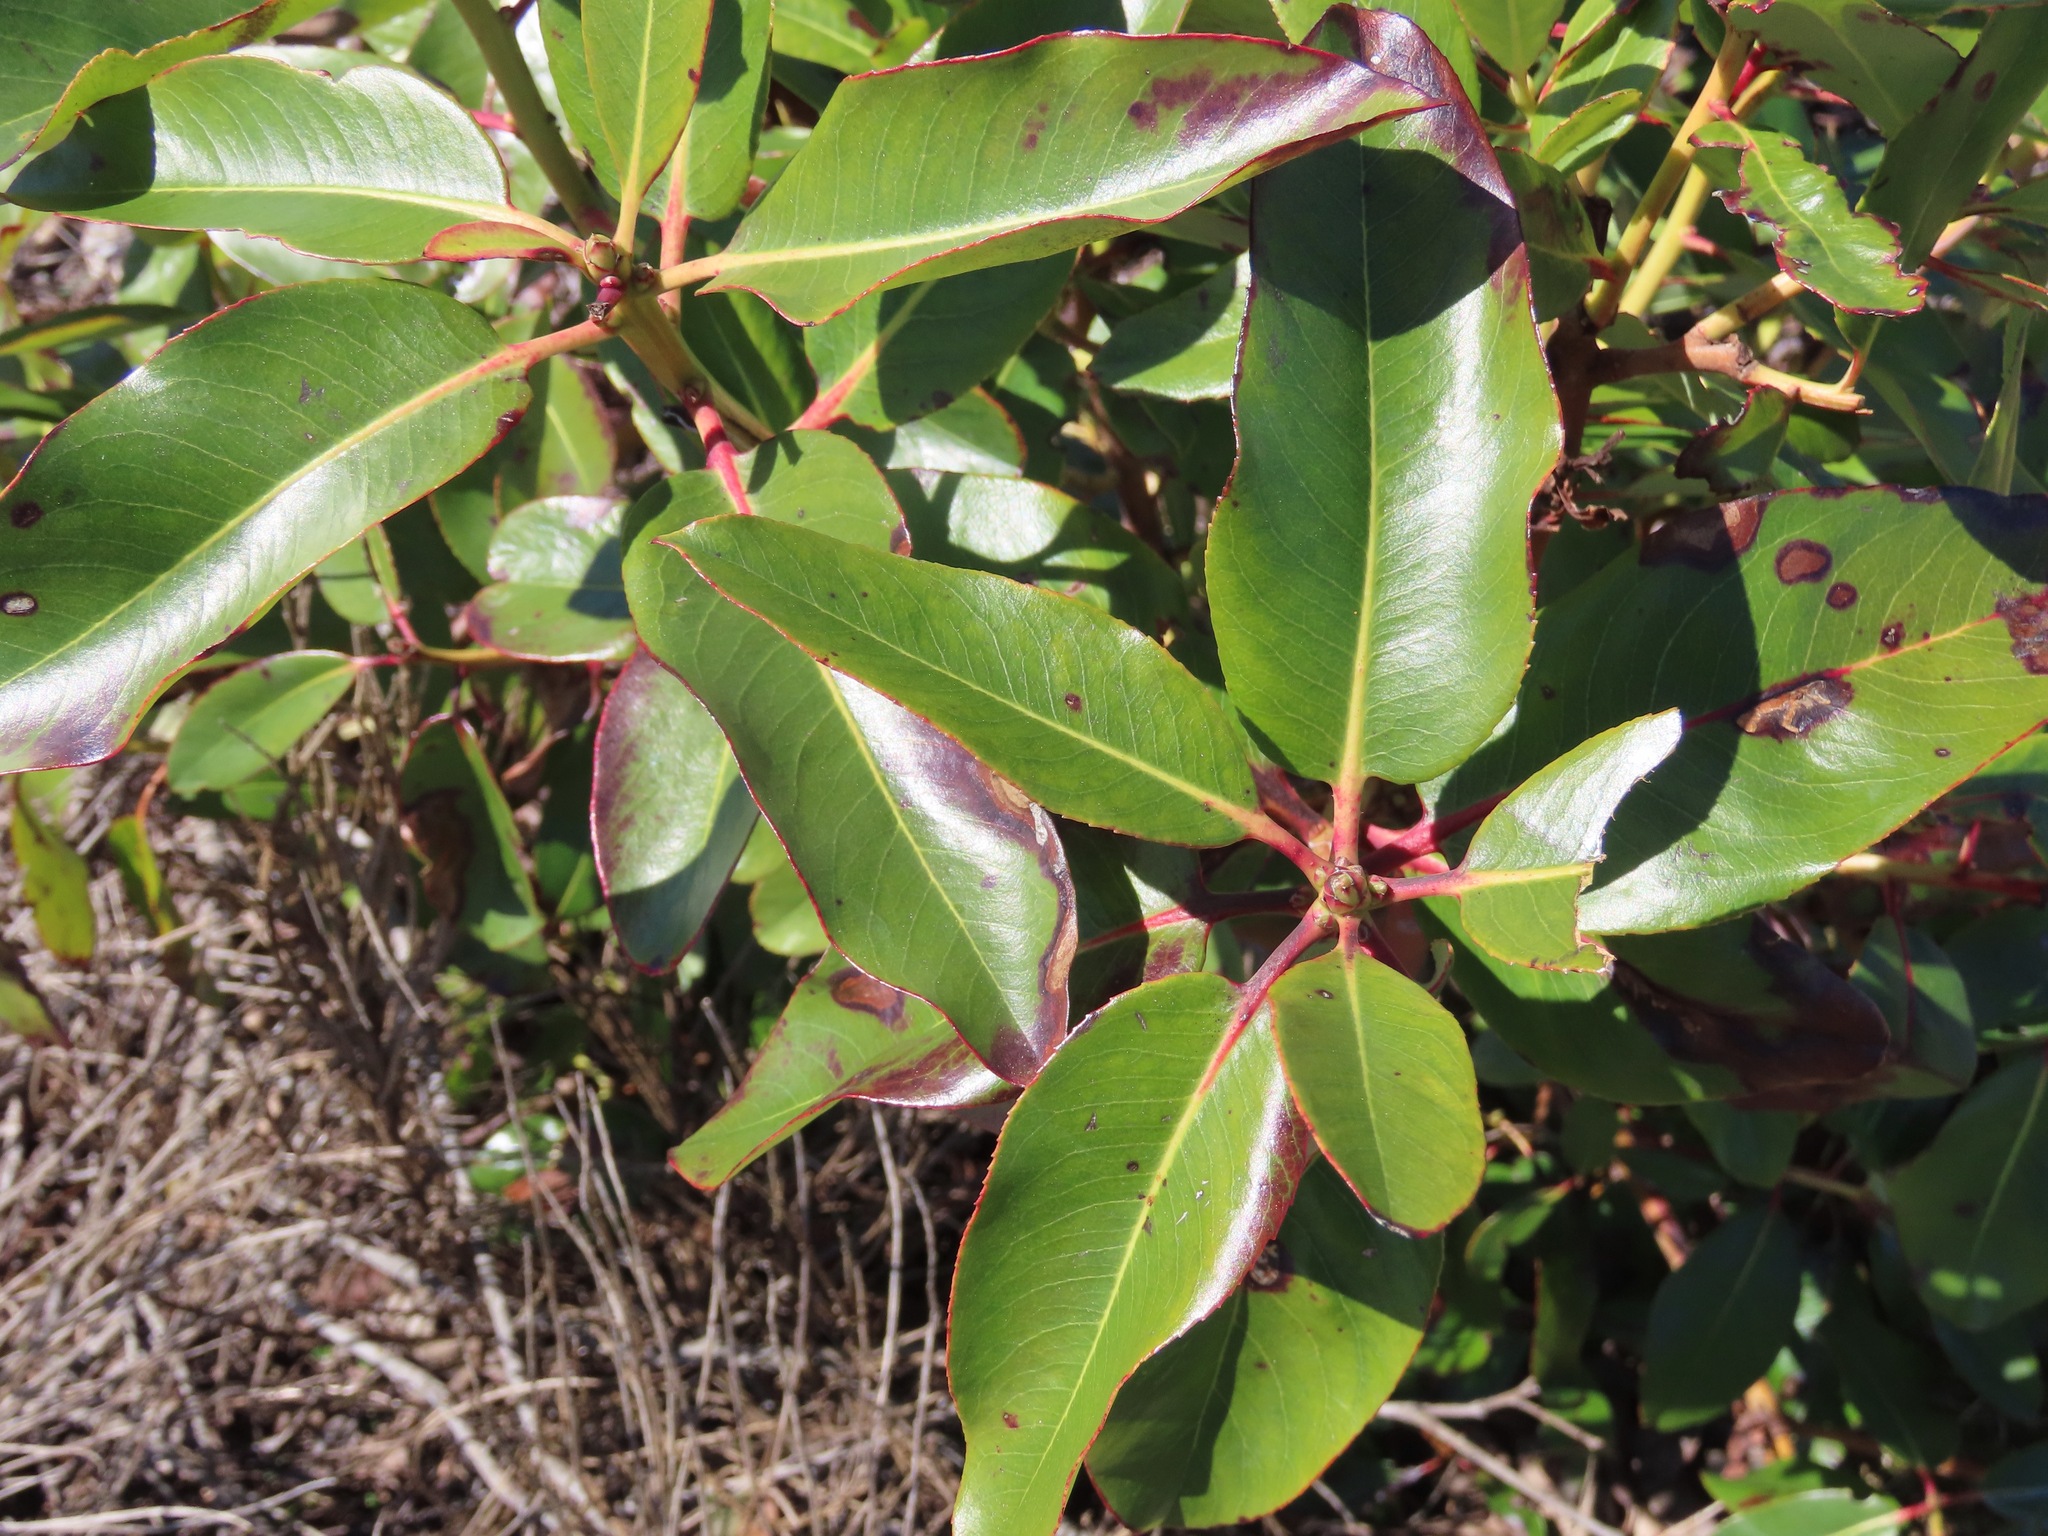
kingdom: Plantae
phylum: Tracheophyta
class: Magnoliopsida
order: Ericales
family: Ericaceae
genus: Arbutus
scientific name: Arbutus menziesii
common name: Pacific madrone
